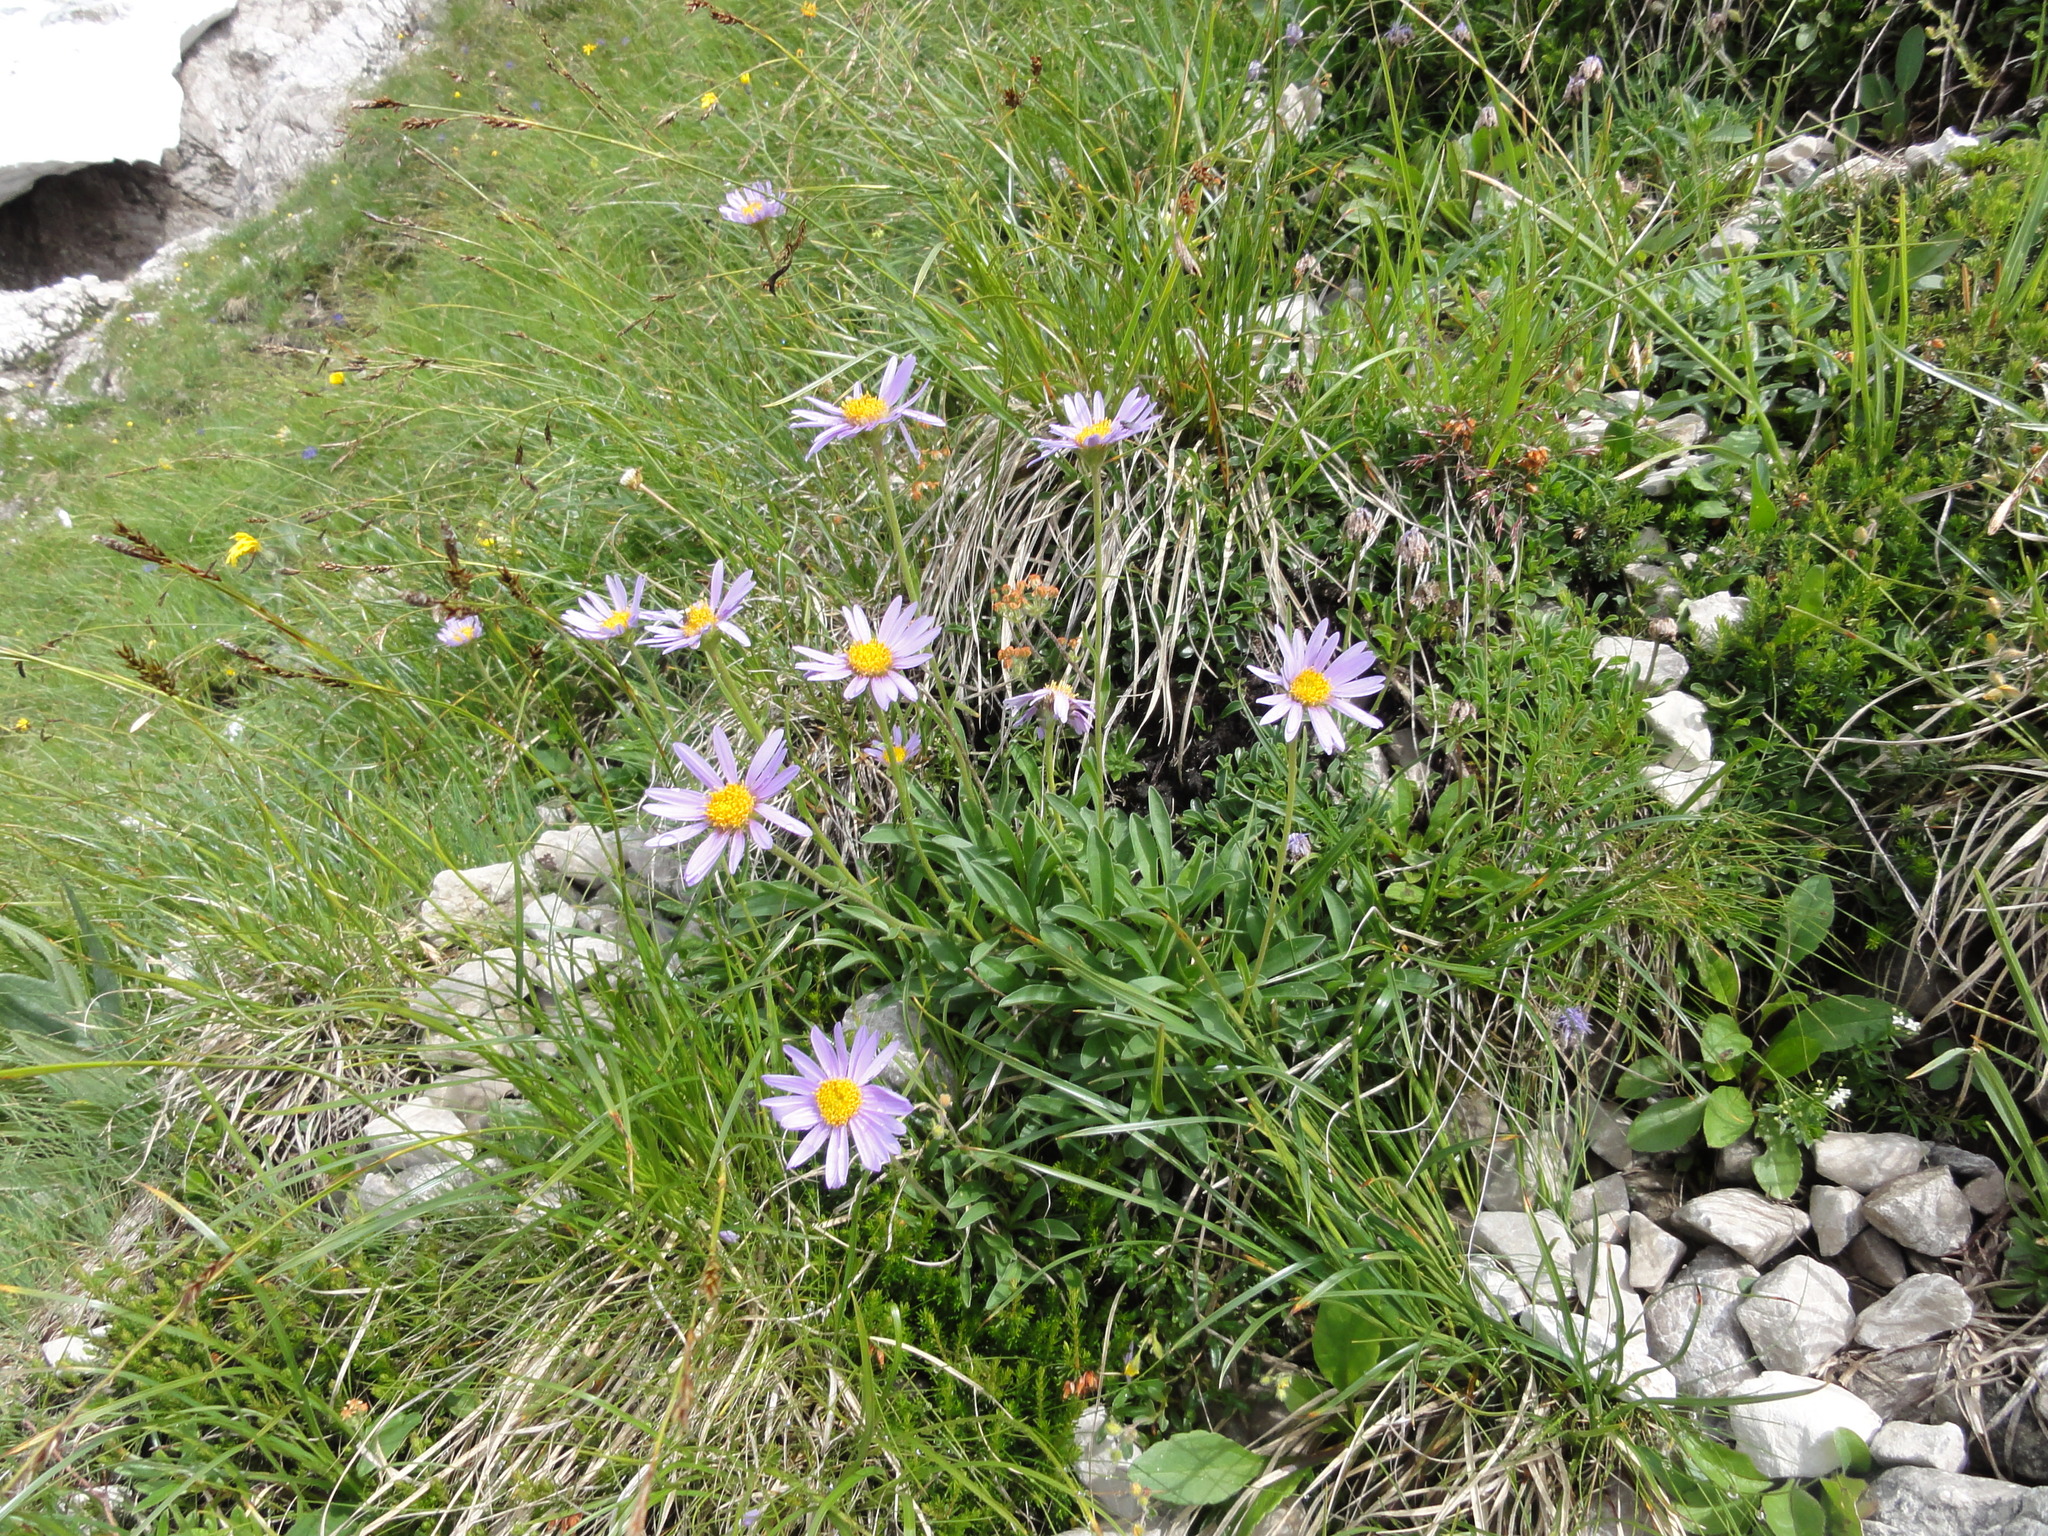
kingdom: Plantae
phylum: Tracheophyta
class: Magnoliopsida
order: Asterales
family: Asteraceae
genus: Aster
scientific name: Aster alpinus
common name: Alpine aster
